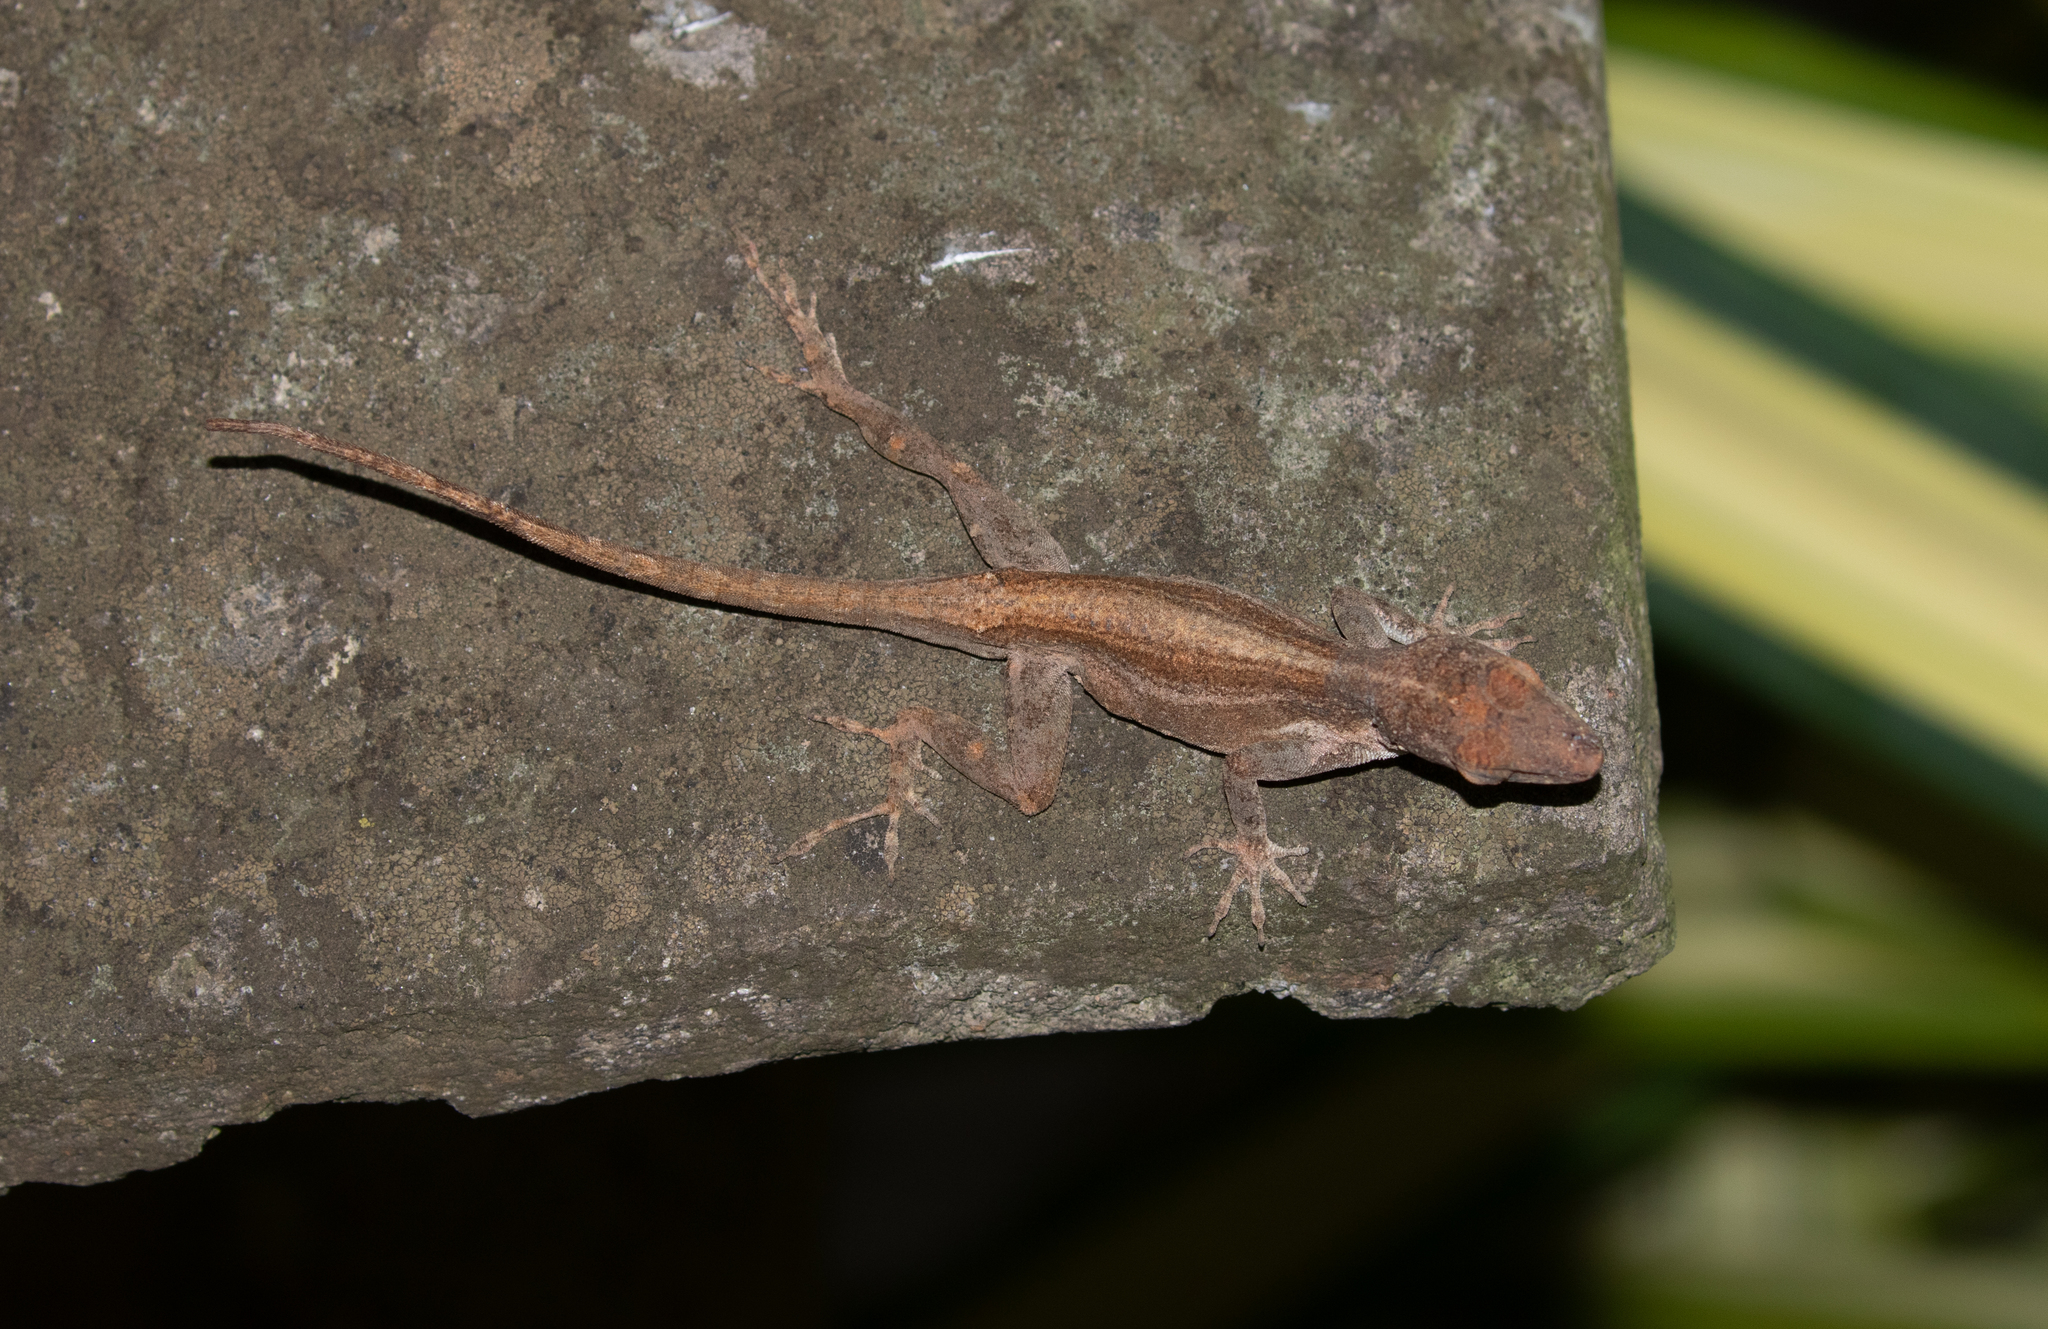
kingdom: Animalia
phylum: Chordata
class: Squamata
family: Dactyloidae
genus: Anolis
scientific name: Anolis cristatellus
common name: Crested anole
